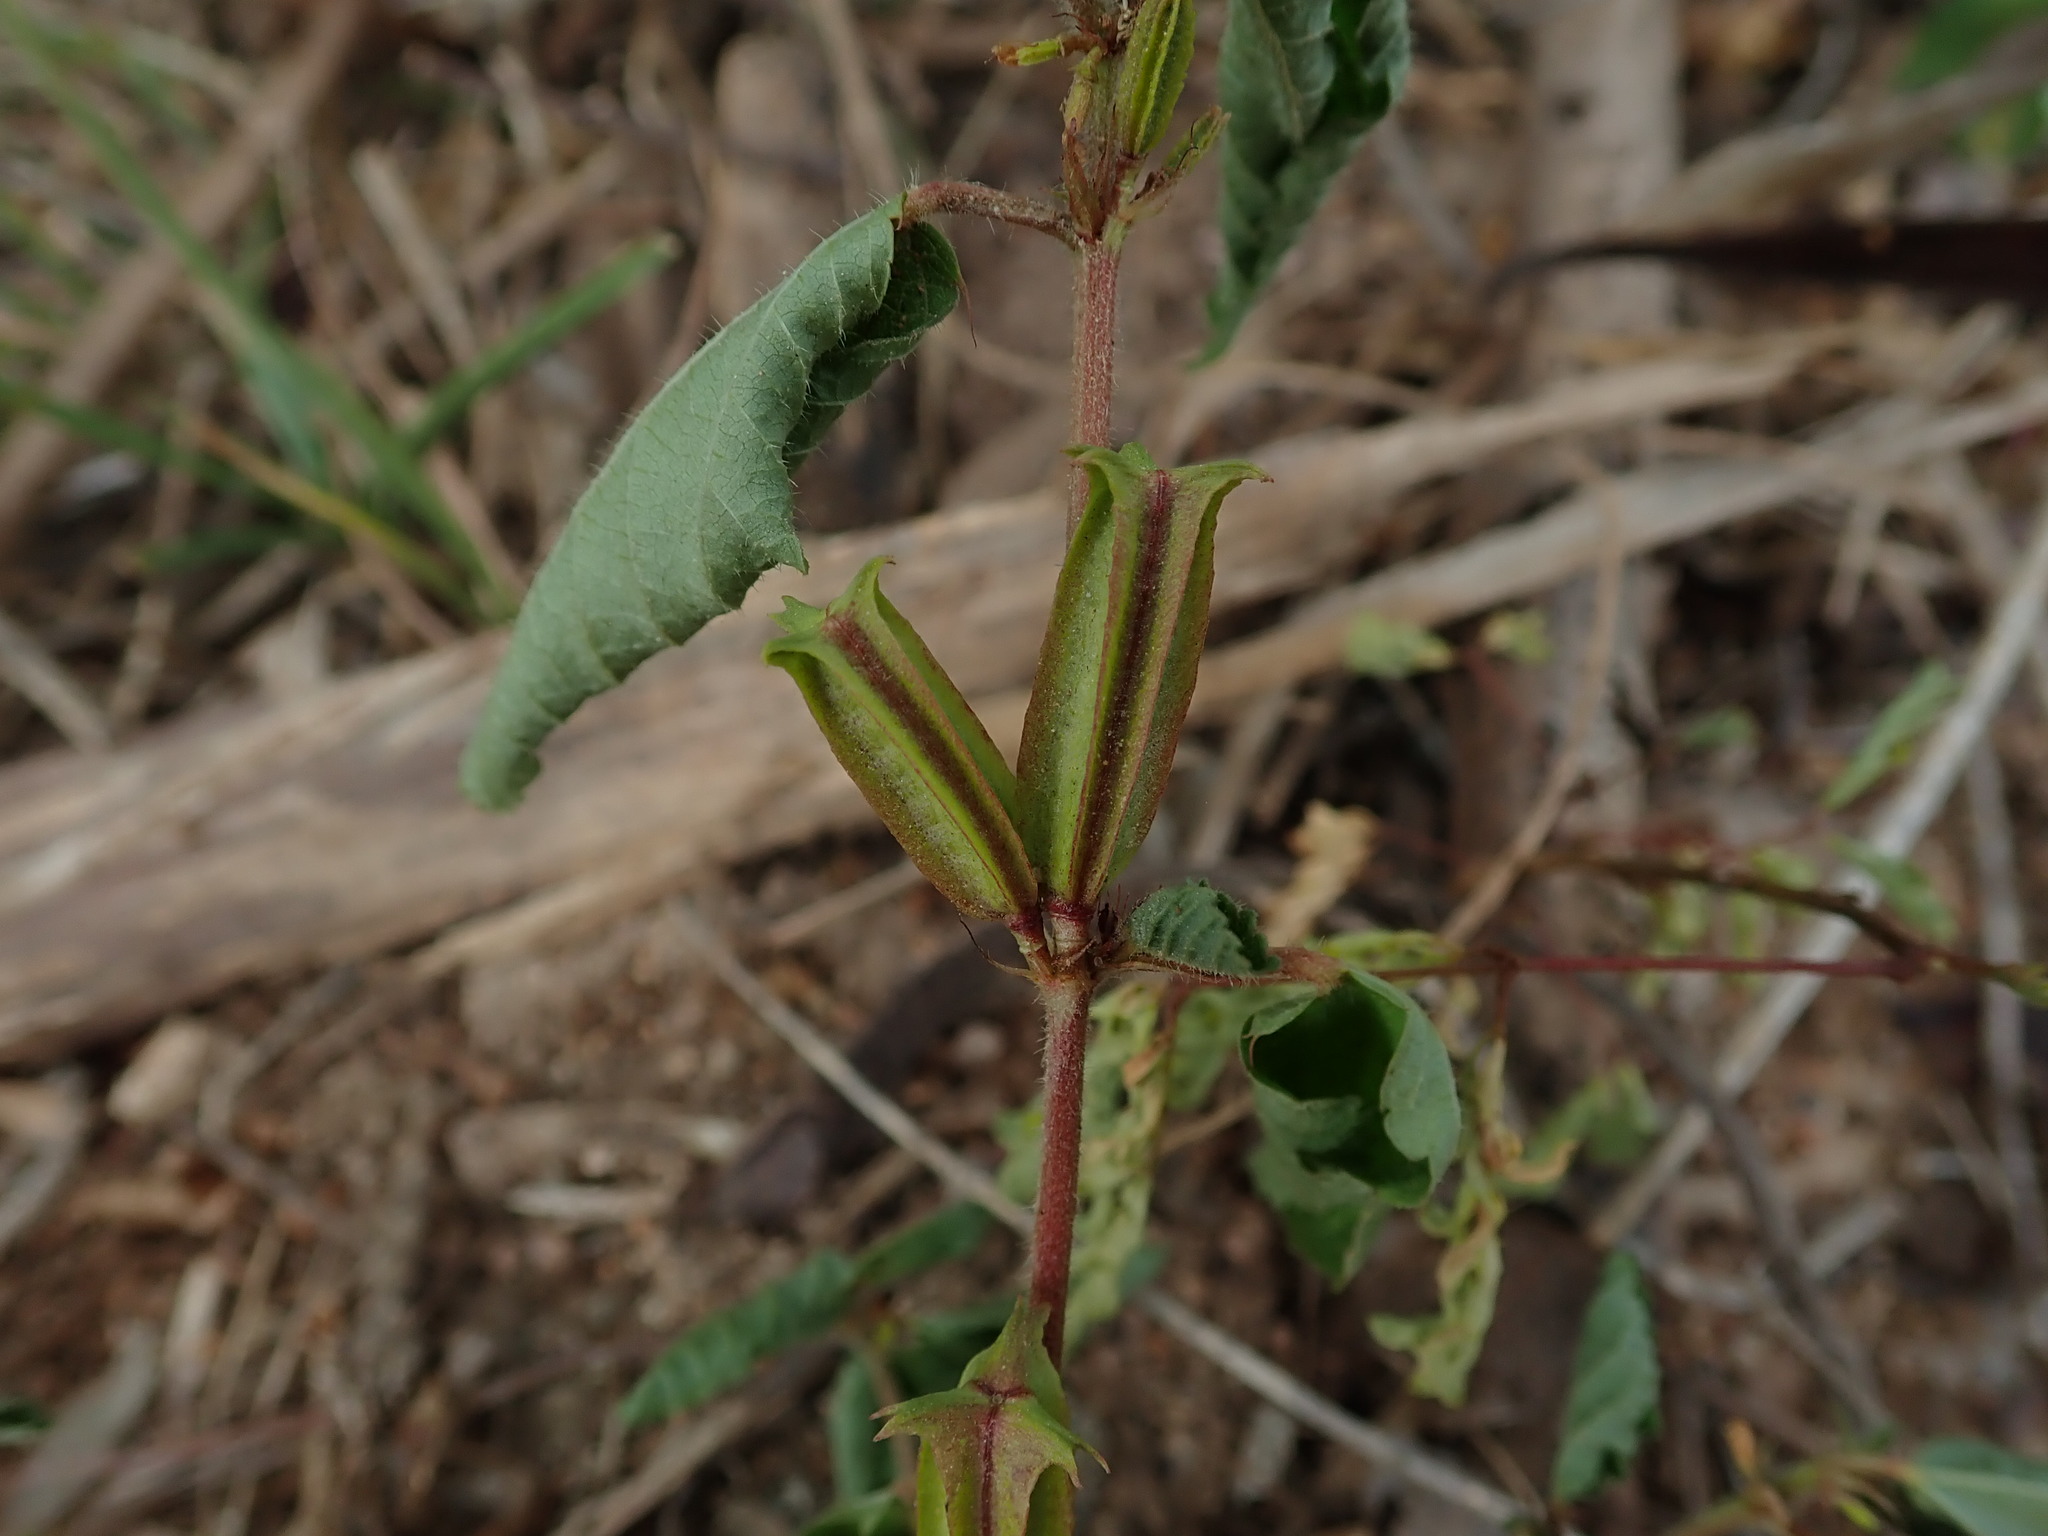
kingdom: Plantae
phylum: Tracheophyta
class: Magnoliopsida
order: Malvales
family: Malvaceae
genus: Corchorus
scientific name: Corchorus aestuans
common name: Jute
